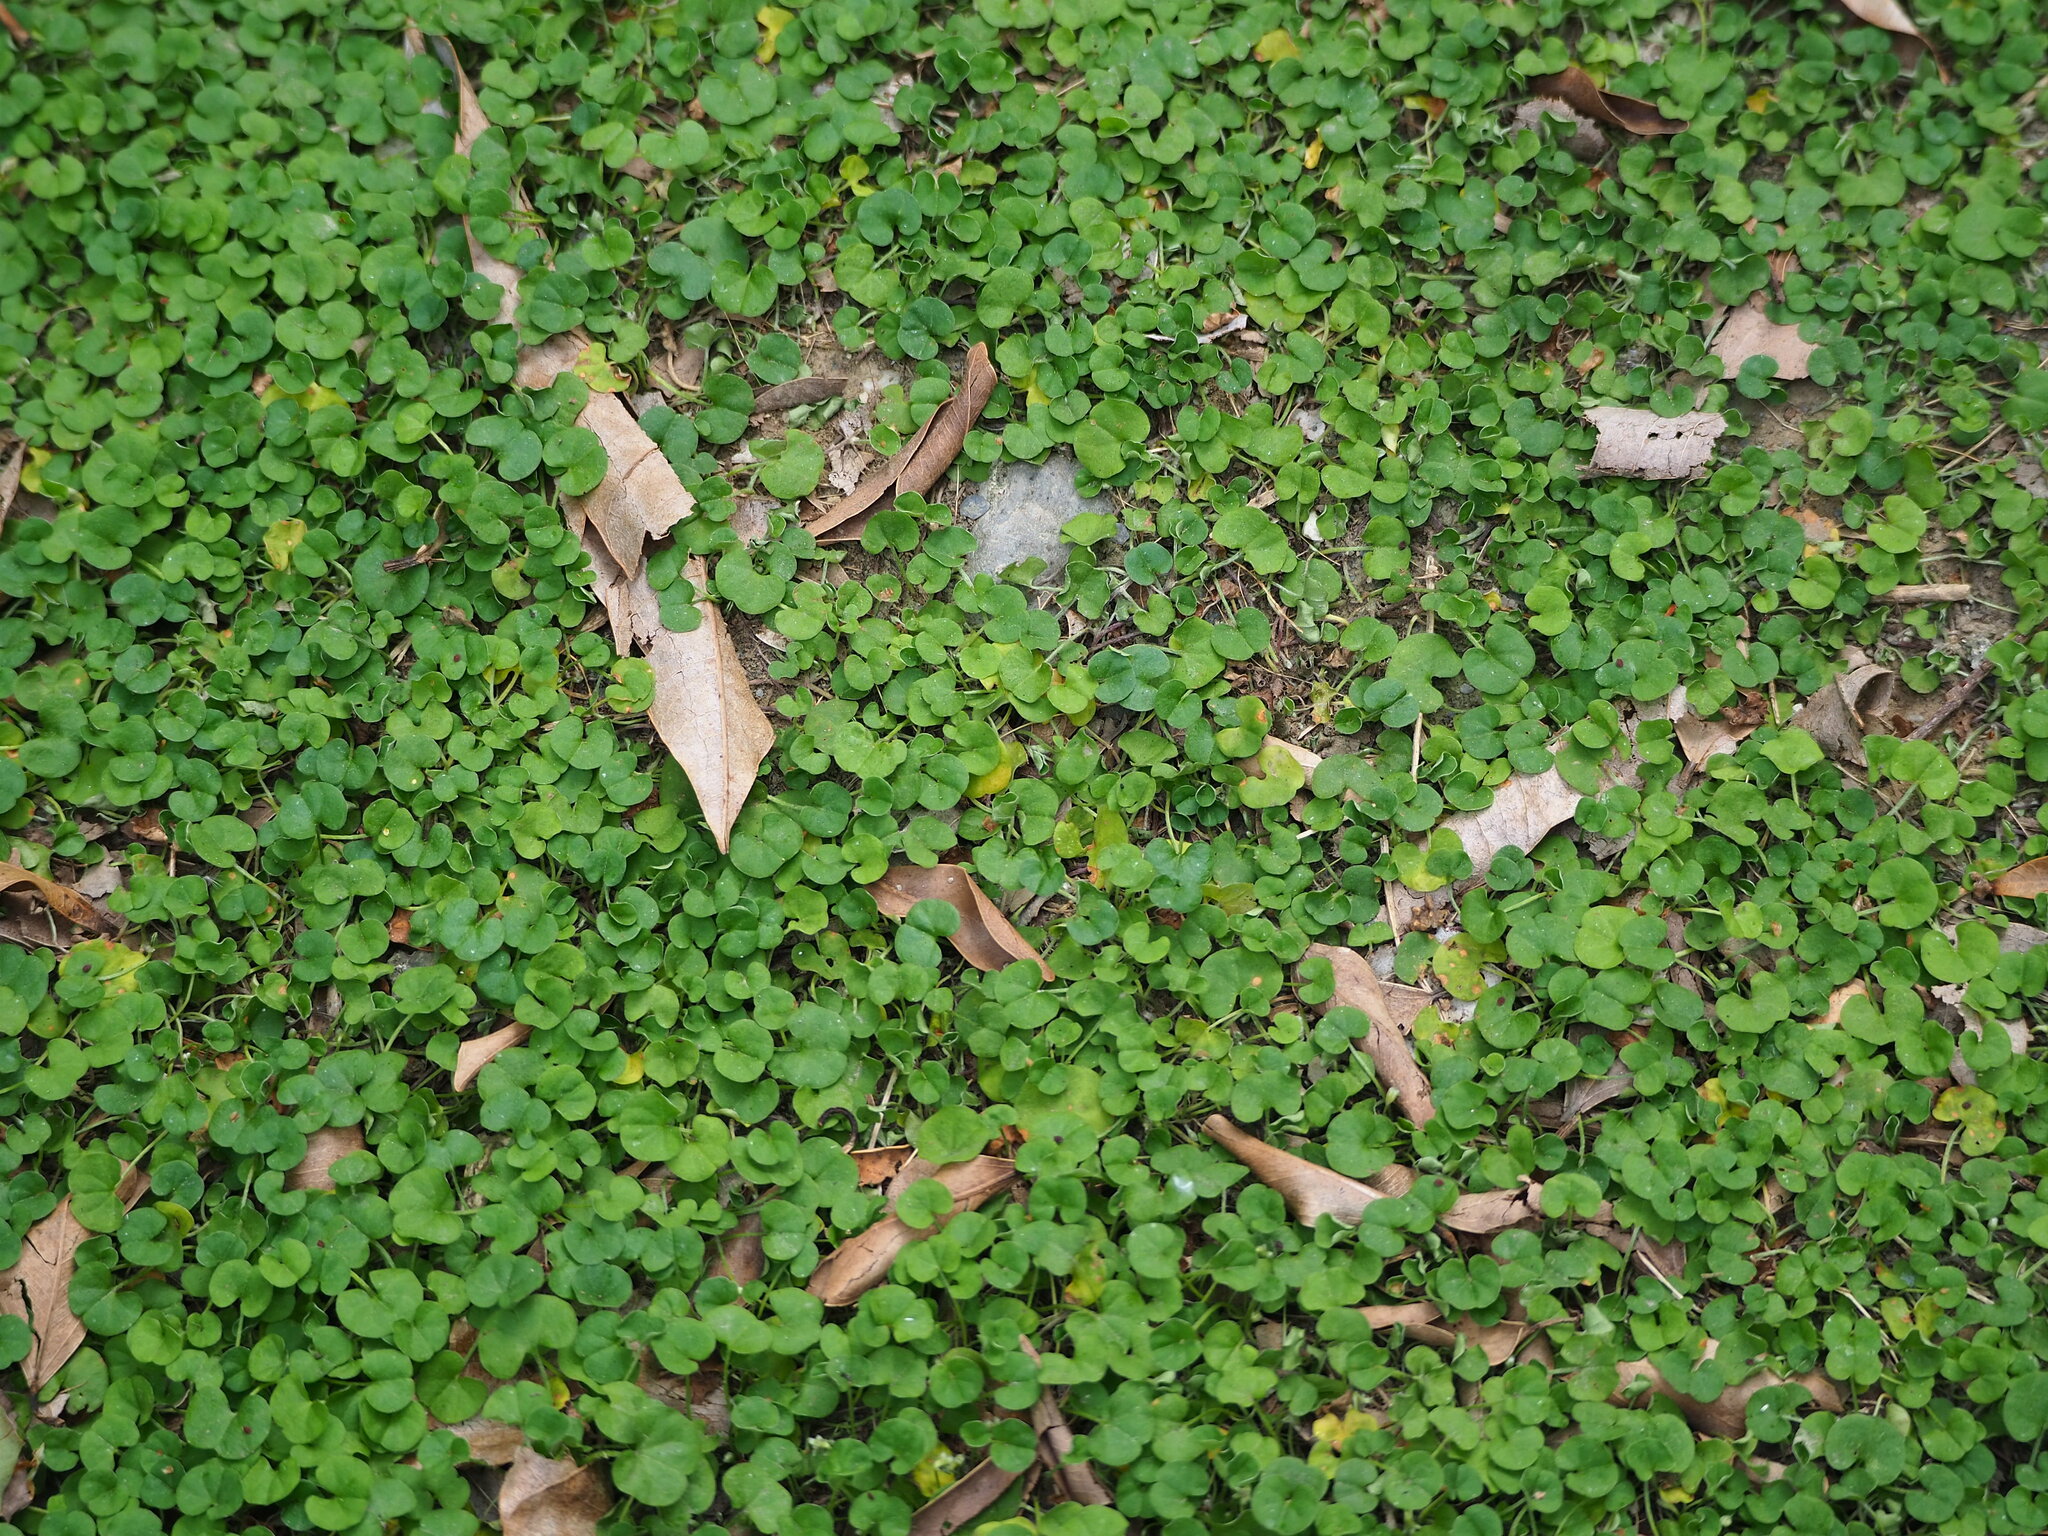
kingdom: Plantae
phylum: Tracheophyta
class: Magnoliopsida
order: Solanales
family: Convolvulaceae
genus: Dichondra
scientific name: Dichondra micrantha
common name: Kidneyweed
